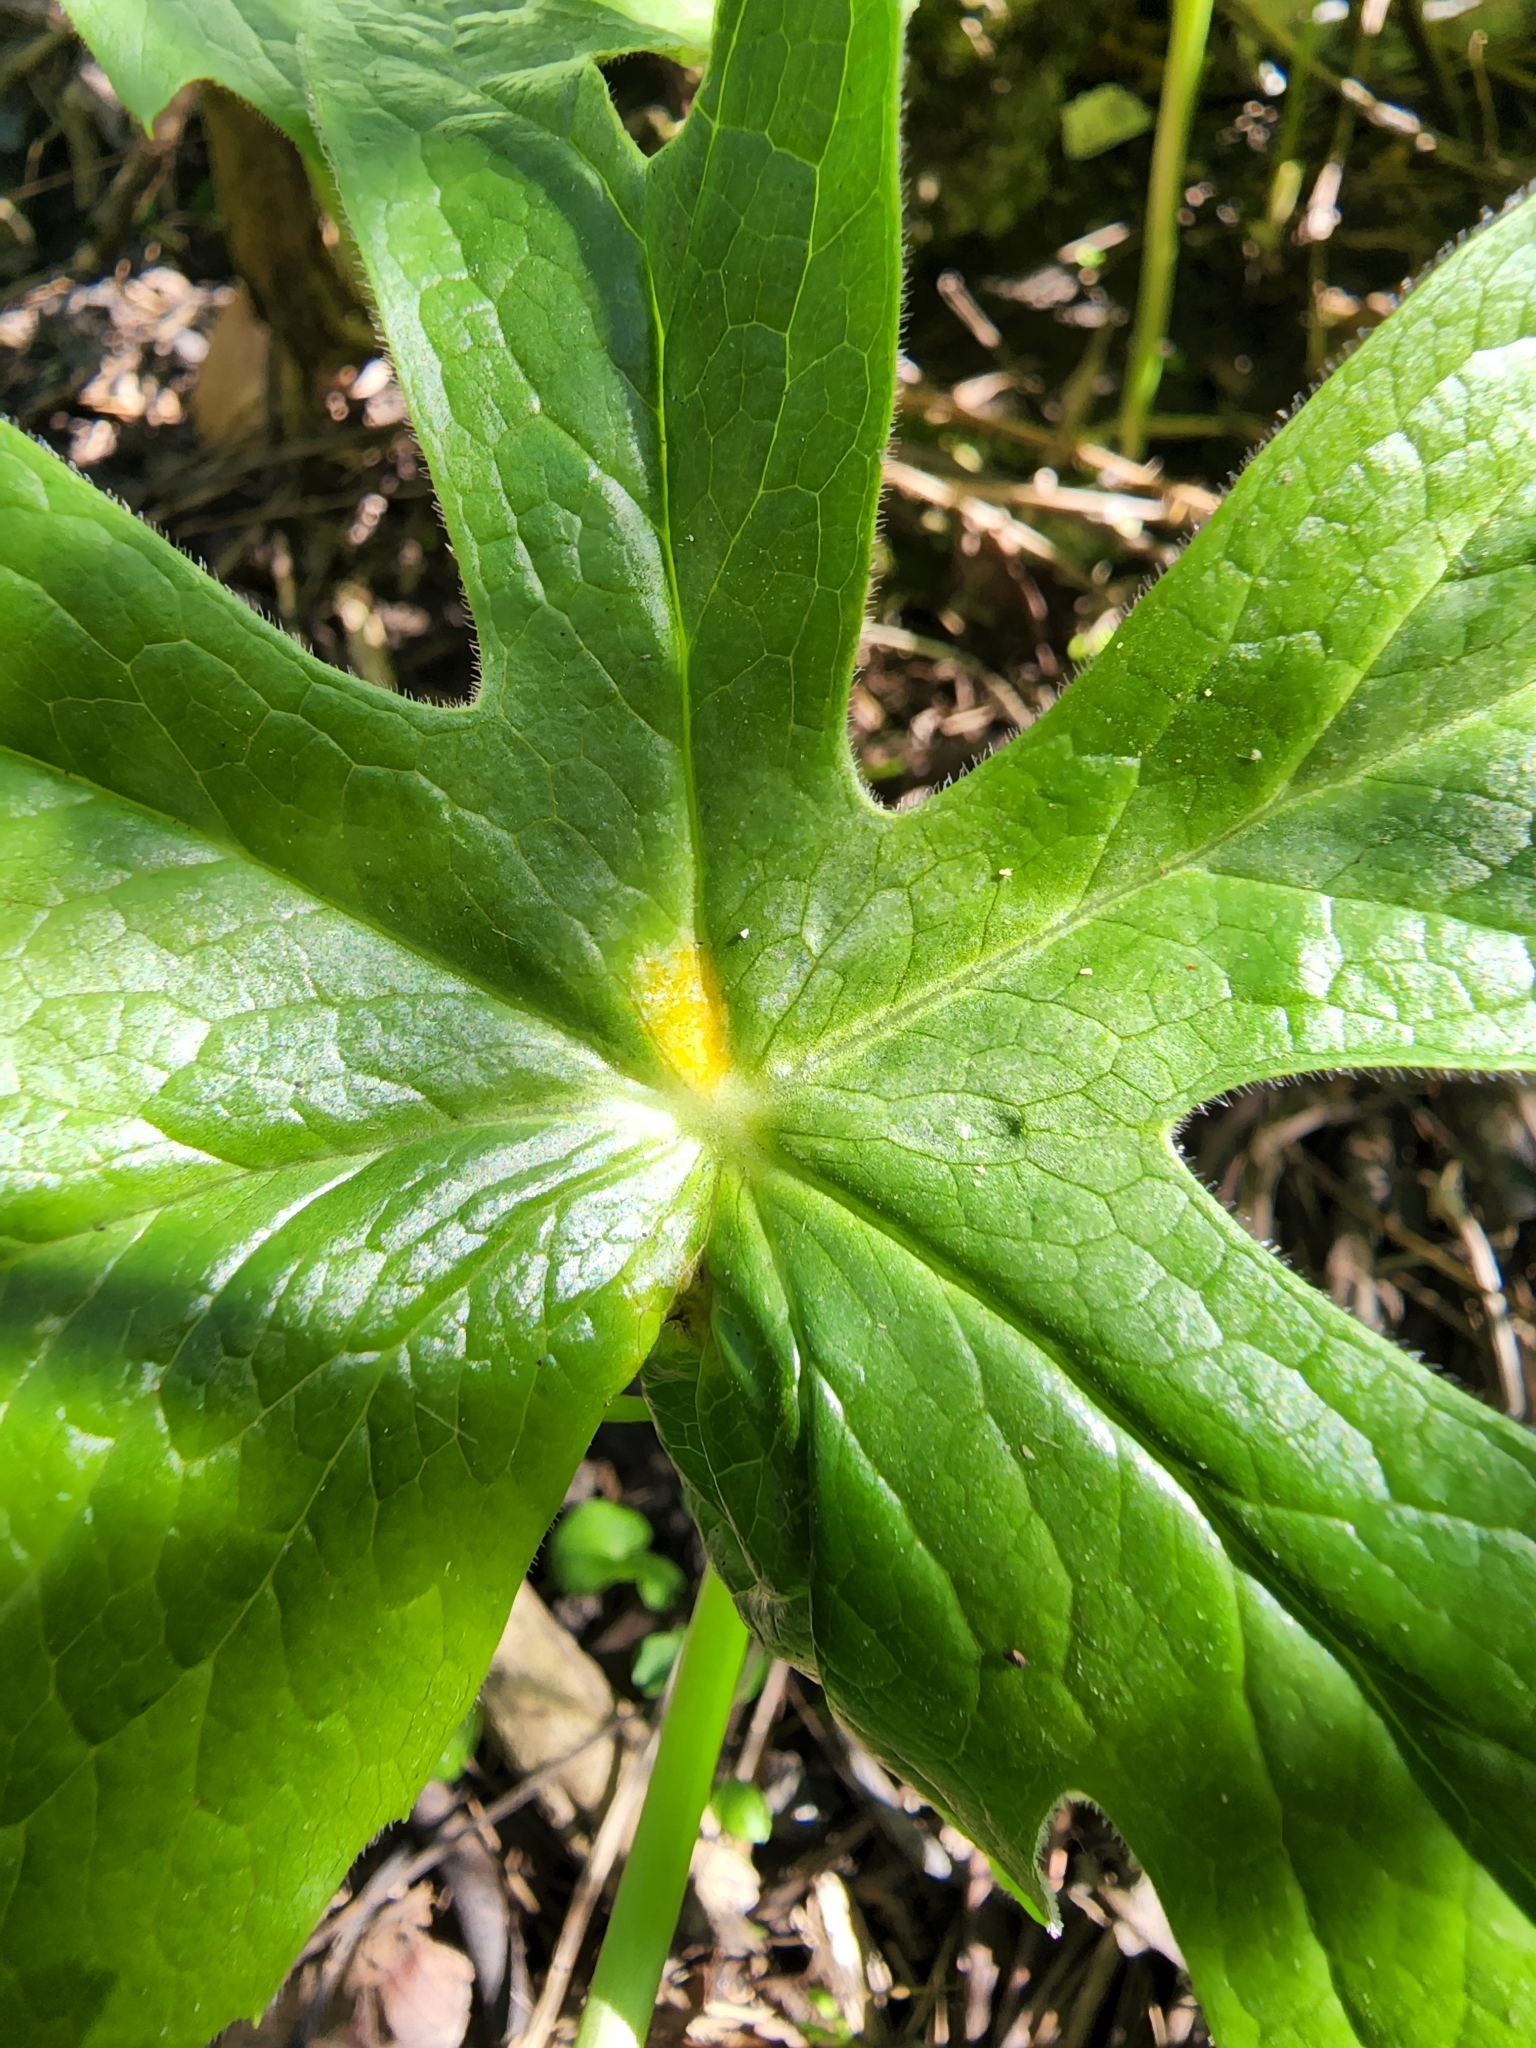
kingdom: Fungi
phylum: Basidiomycota
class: Pucciniomycetes
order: Pucciniales
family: Pucciniaceae
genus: Puccinia
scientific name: Puccinia podophylli
